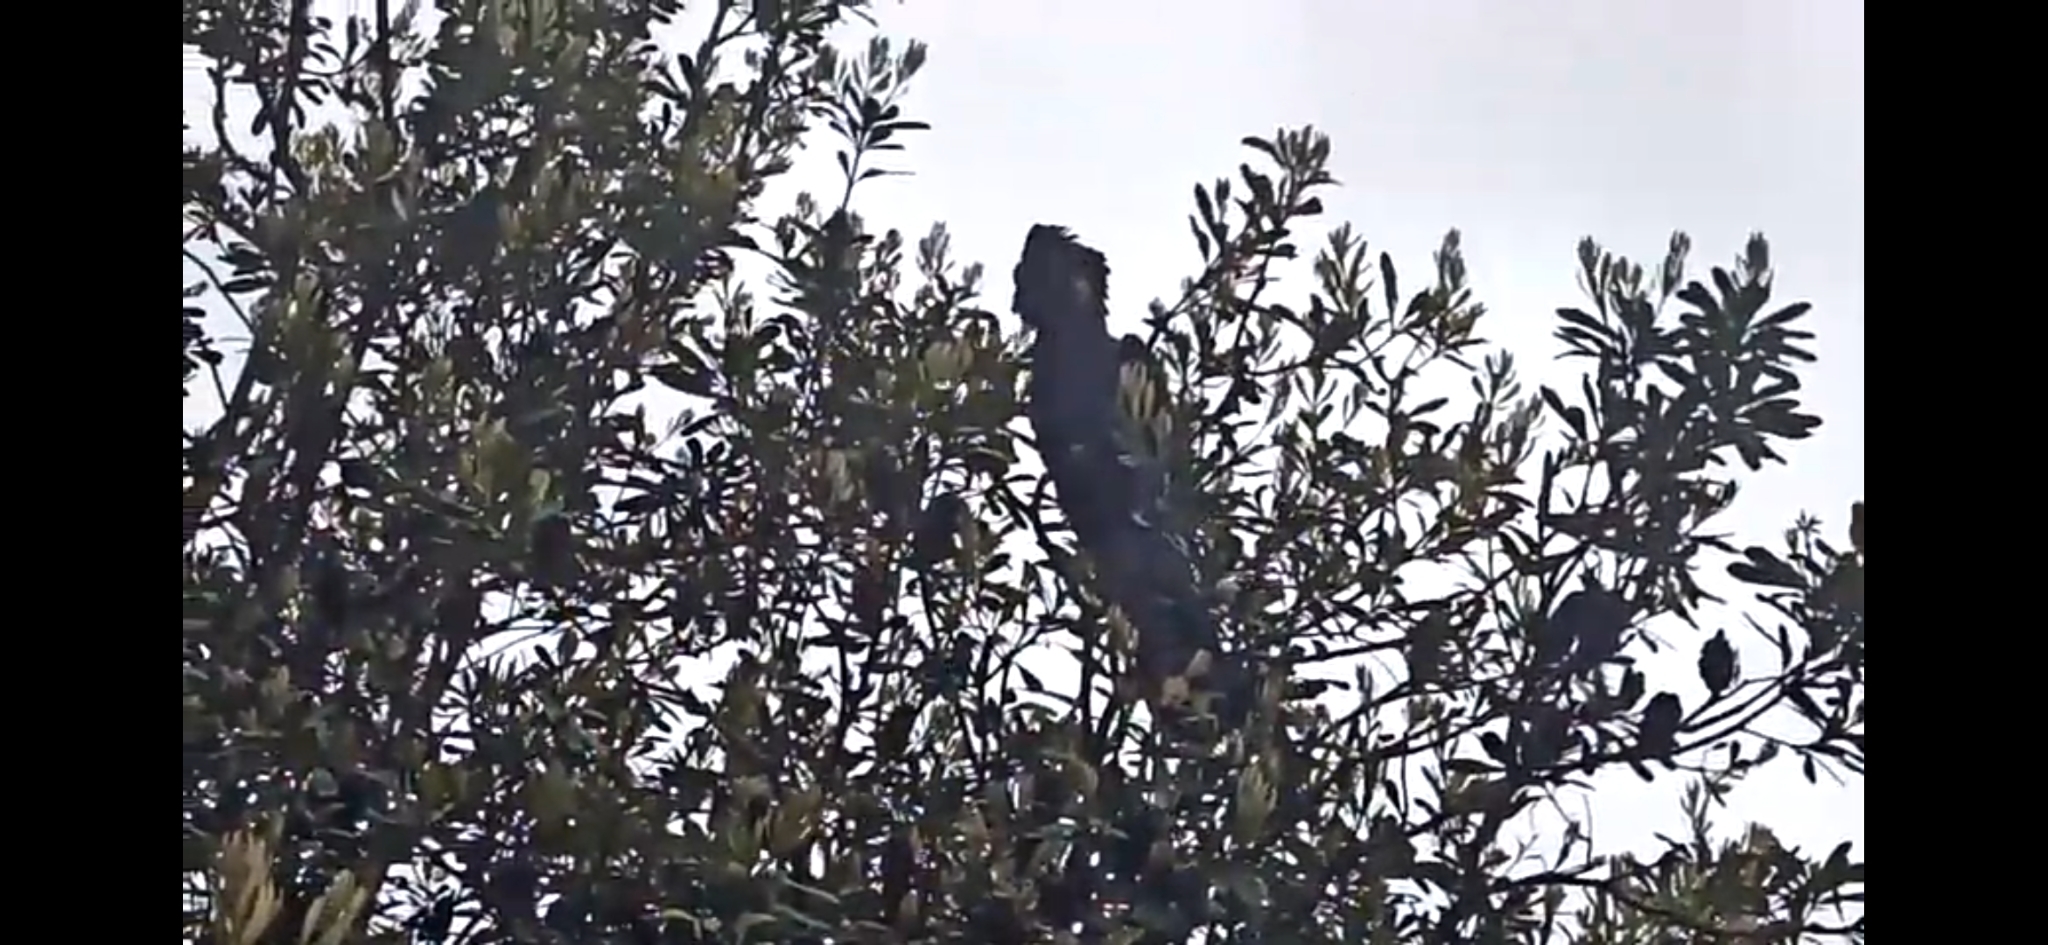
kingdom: Animalia
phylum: Chordata
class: Aves
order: Psittaciformes
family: Cacatuidae
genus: Zanda
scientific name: Zanda funerea
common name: Yellow-tailed black-cockatoo
